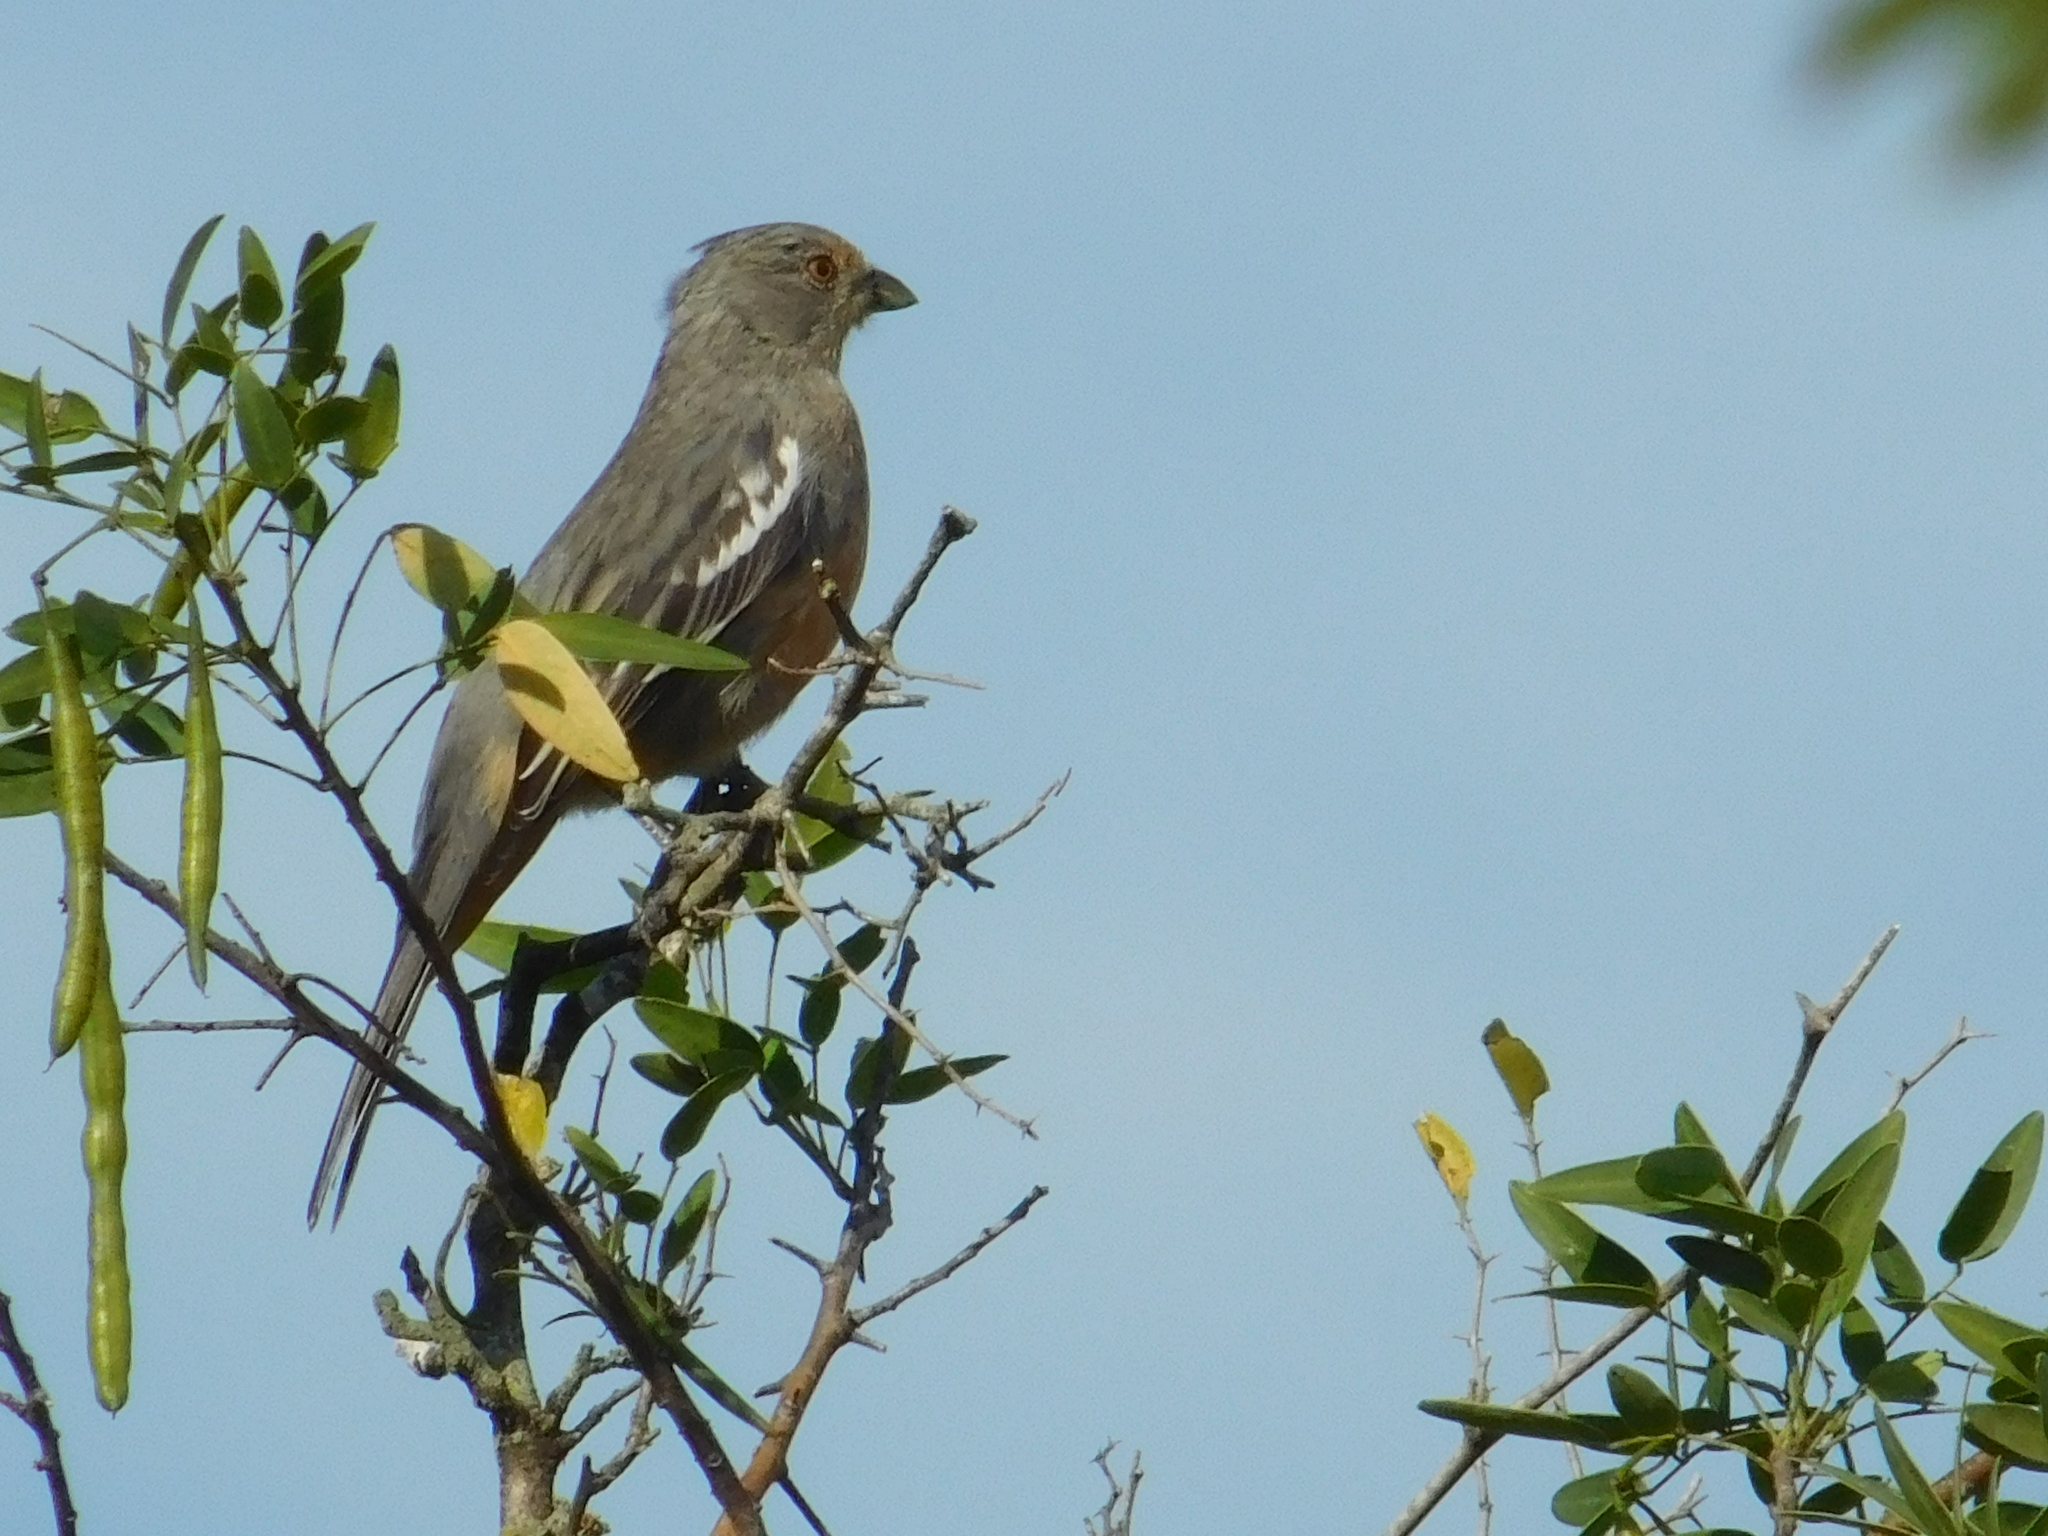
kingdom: Animalia
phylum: Chordata
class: Aves
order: Passeriformes
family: Cotingidae
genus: Phytotoma
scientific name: Phytotoma rutila
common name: White-tipped plantcutter
